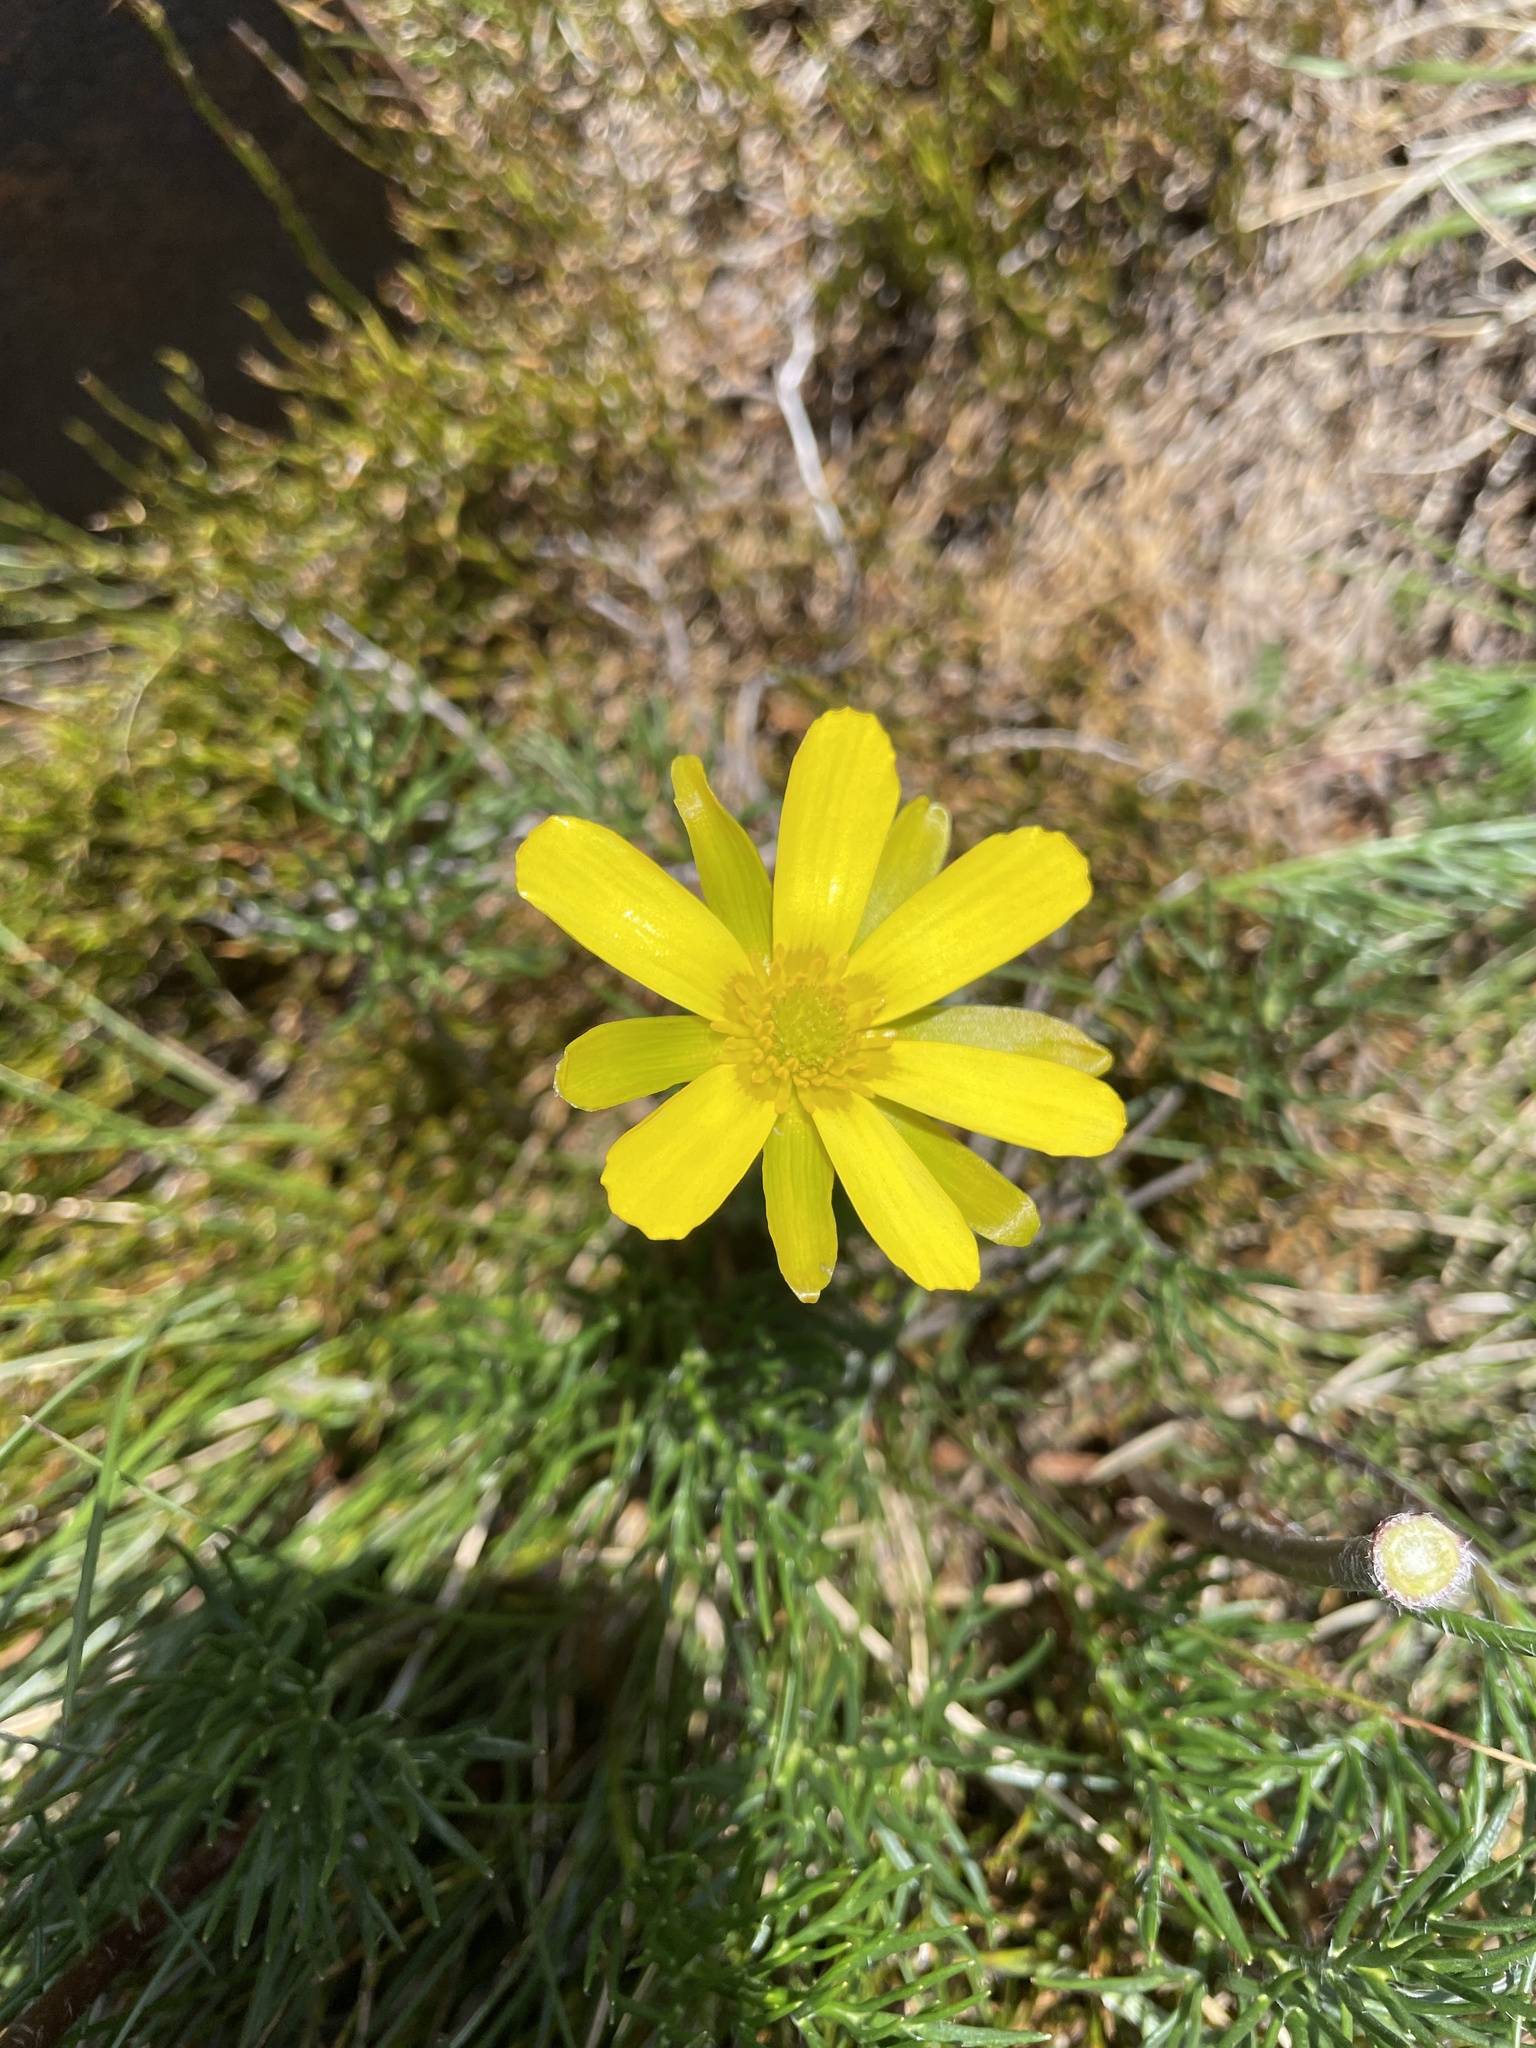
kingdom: Plantae
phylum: Tracheophyta
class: Magnoliopsida
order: Ranunculales
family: Ranunculaceae
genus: Ranunculus
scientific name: Ranunculus gunnianus
